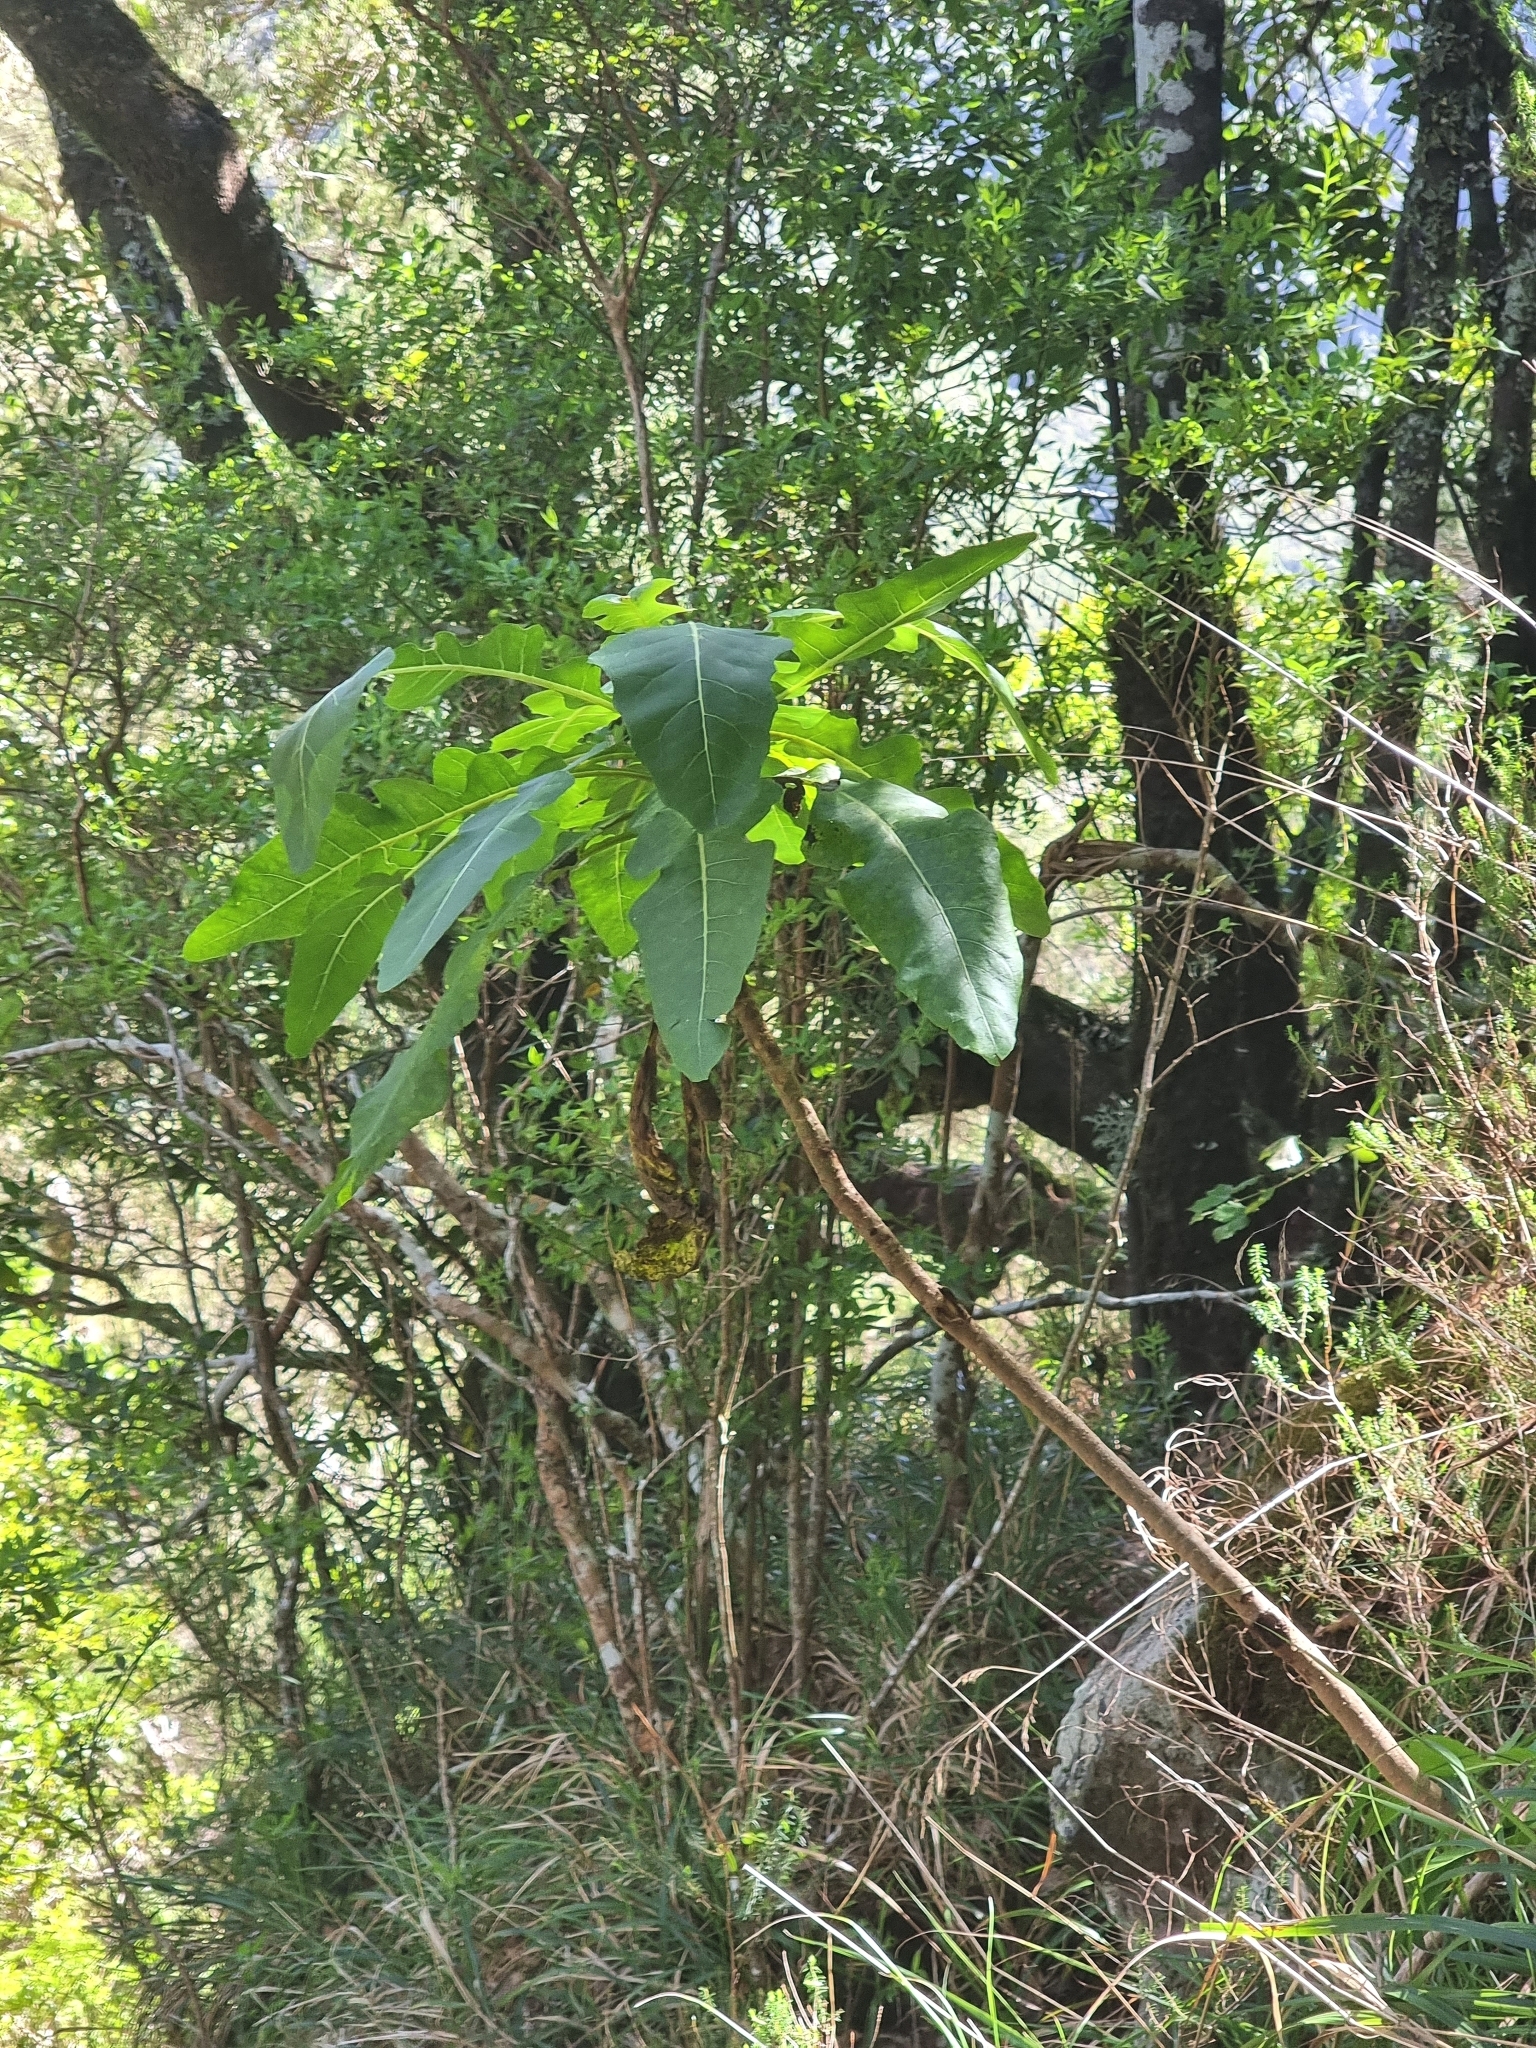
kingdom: Plantae
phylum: Tracheophyta
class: Magnoliopsida
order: Asterales
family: Asteraceae
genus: Sonchus
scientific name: Sonchus fruticosus
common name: Shrubby sow-thistle
